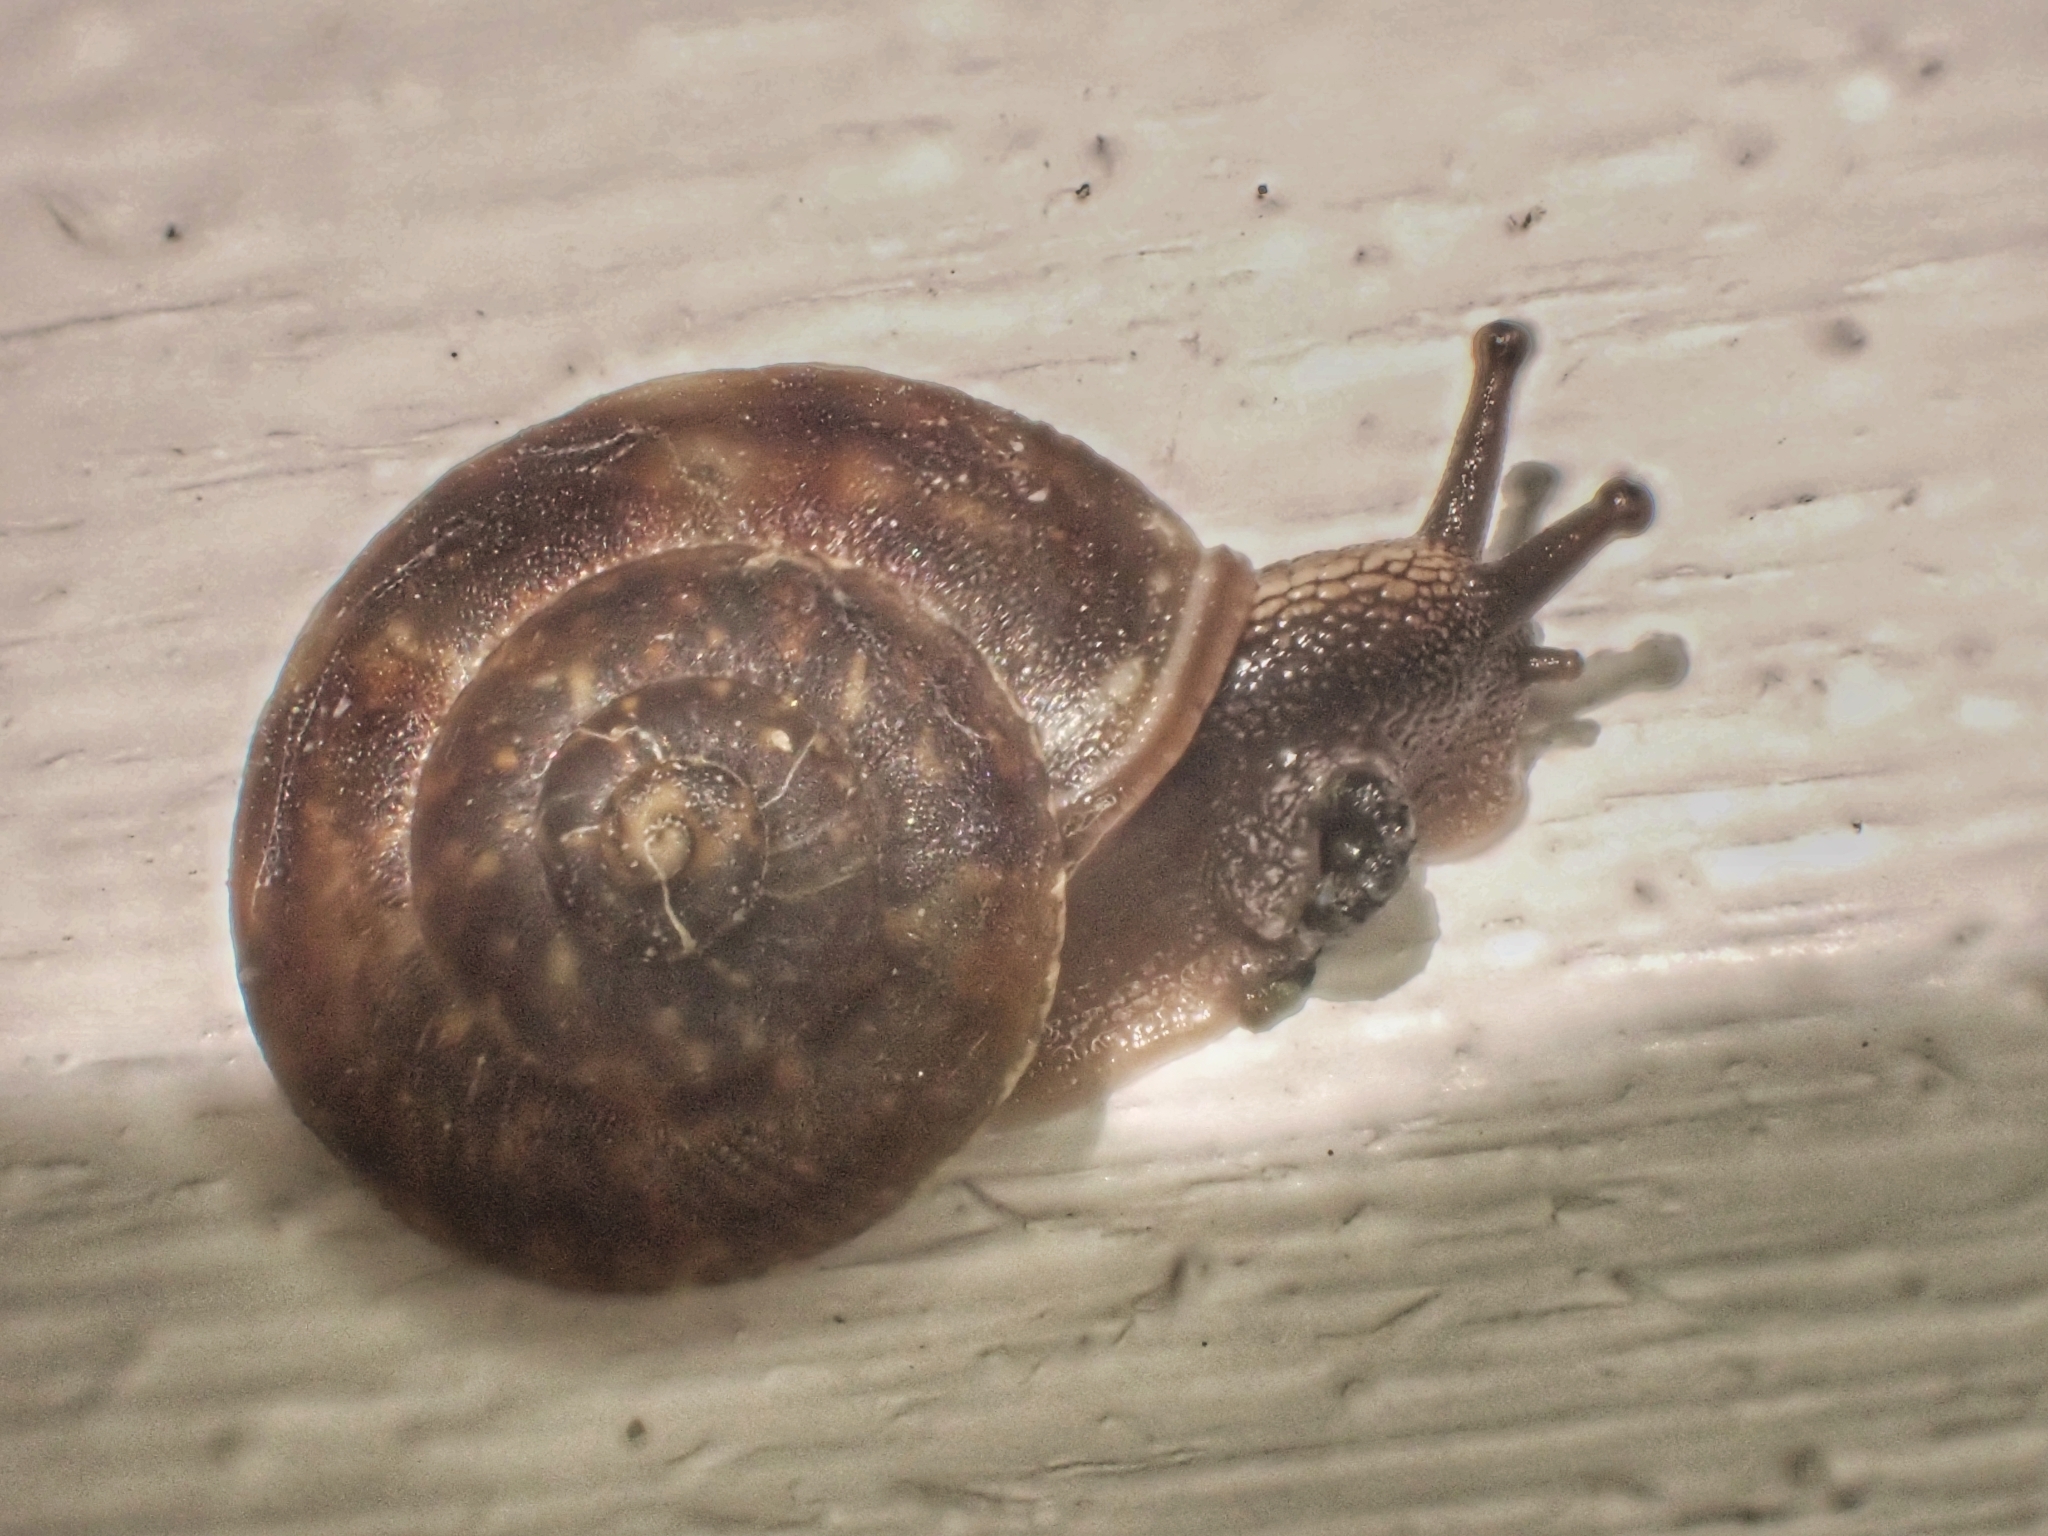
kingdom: Animalia
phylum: Mollusca
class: Gastropoda
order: Stylommatophora
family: Helicidae
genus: Helicigona
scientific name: Helicigona lapicida
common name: Lapidary snail
